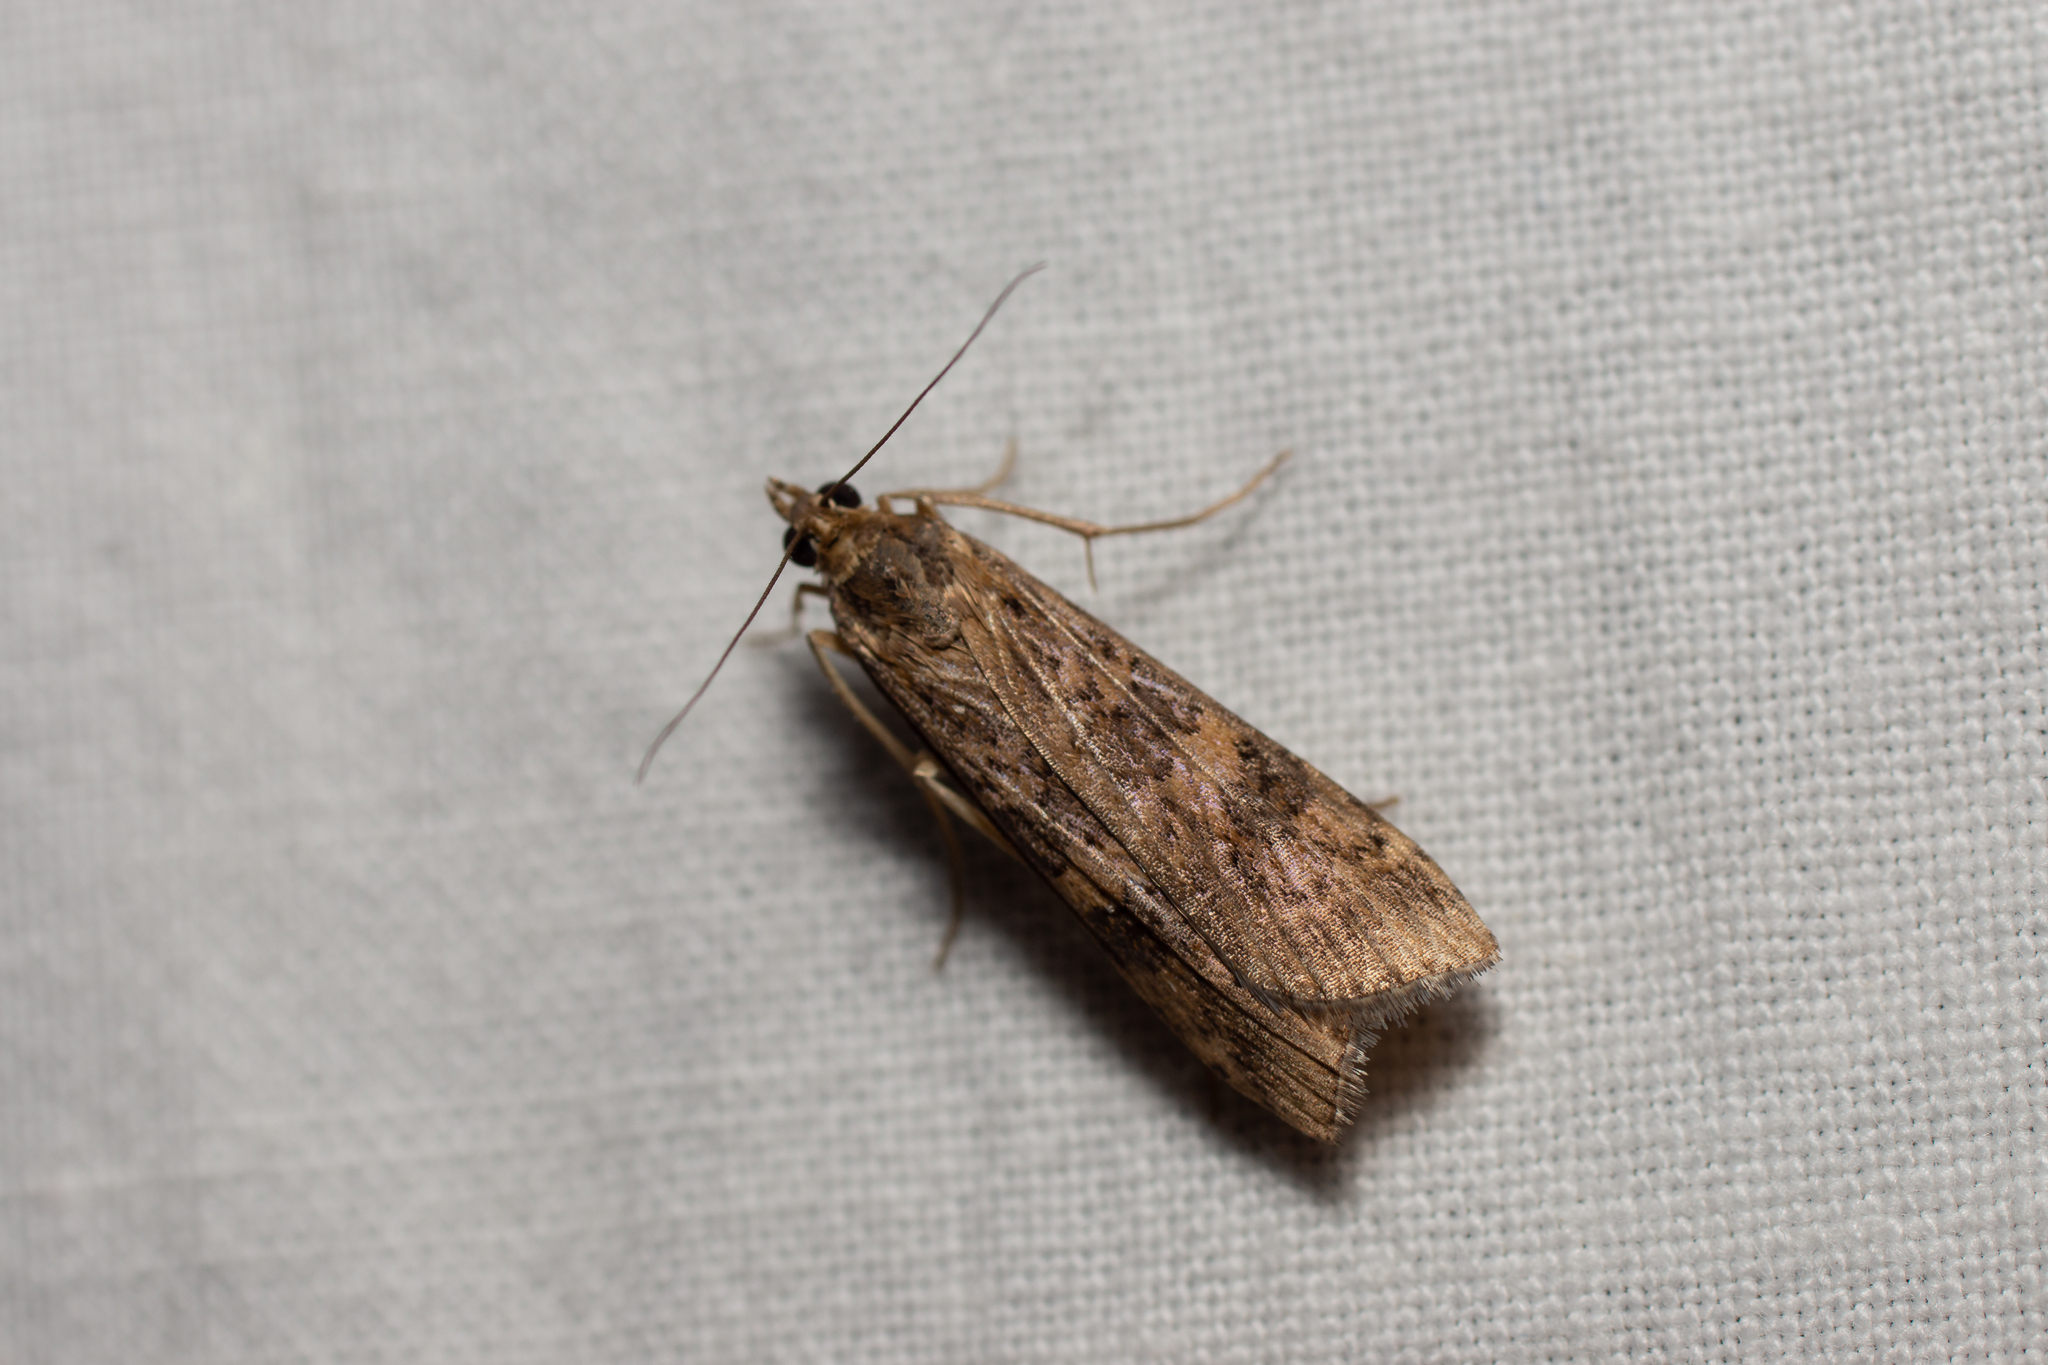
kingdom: Animalia
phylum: Arthropoda
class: Insecta
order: Lepidoptera
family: Crambidae
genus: Nomophila
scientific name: Nomophila noctuella
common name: Rush veneer
